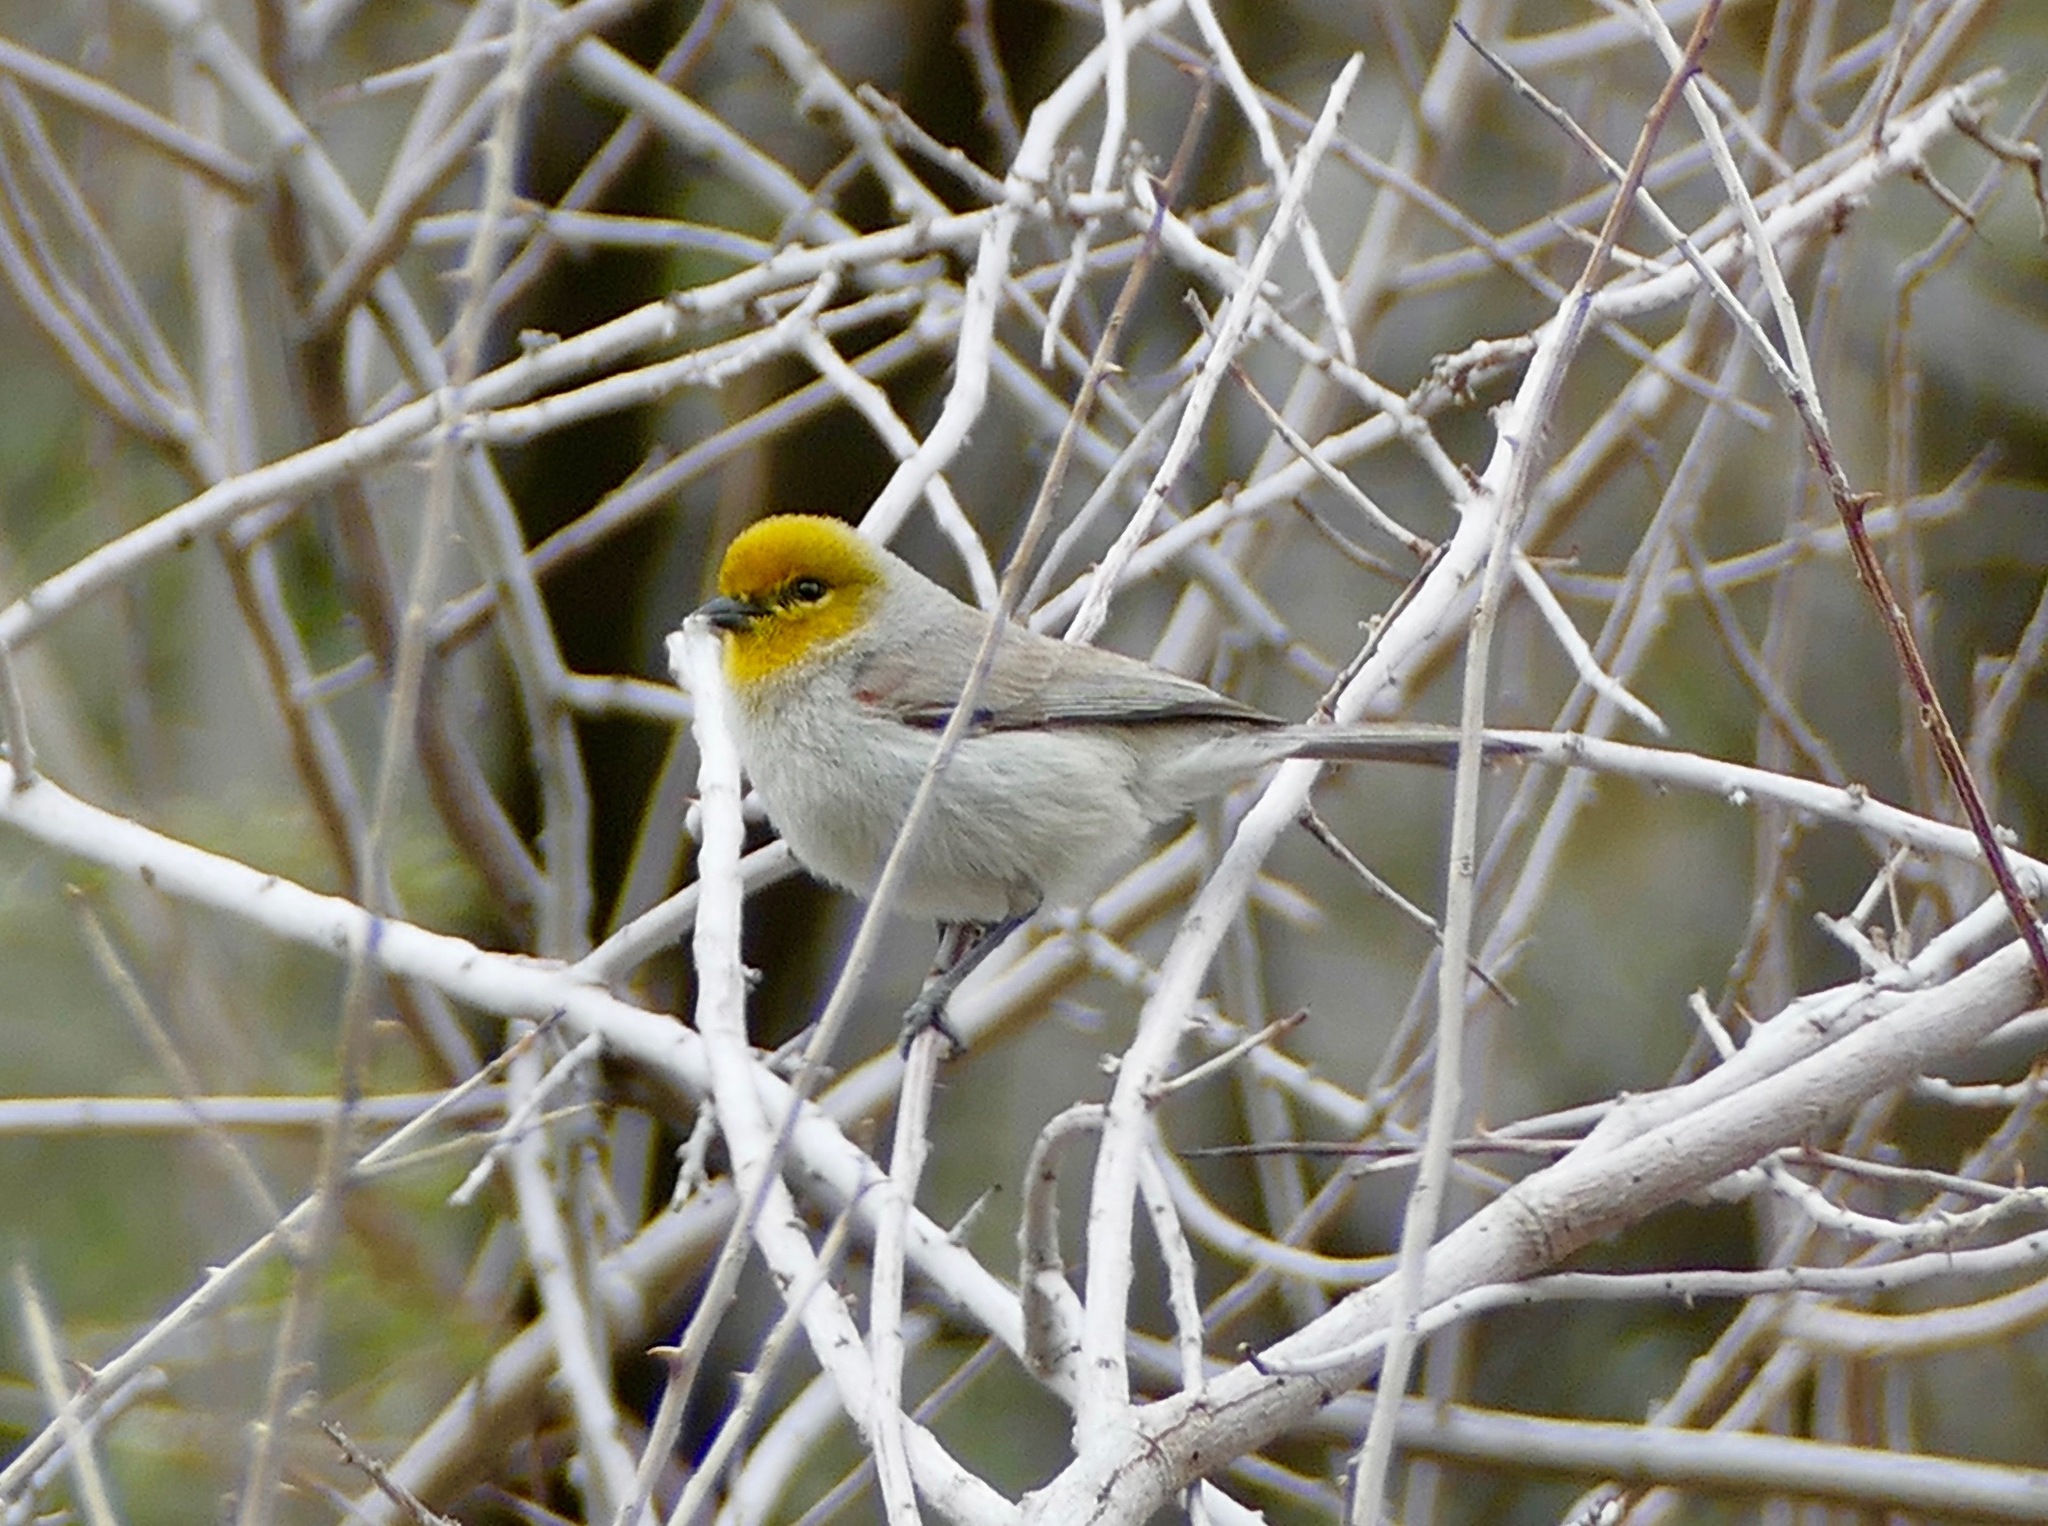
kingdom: Animalia
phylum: Chordata
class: Aves
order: Passeriformes
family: Remizidae
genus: Auriparus
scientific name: Auriparus flaviceps
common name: Verdin
